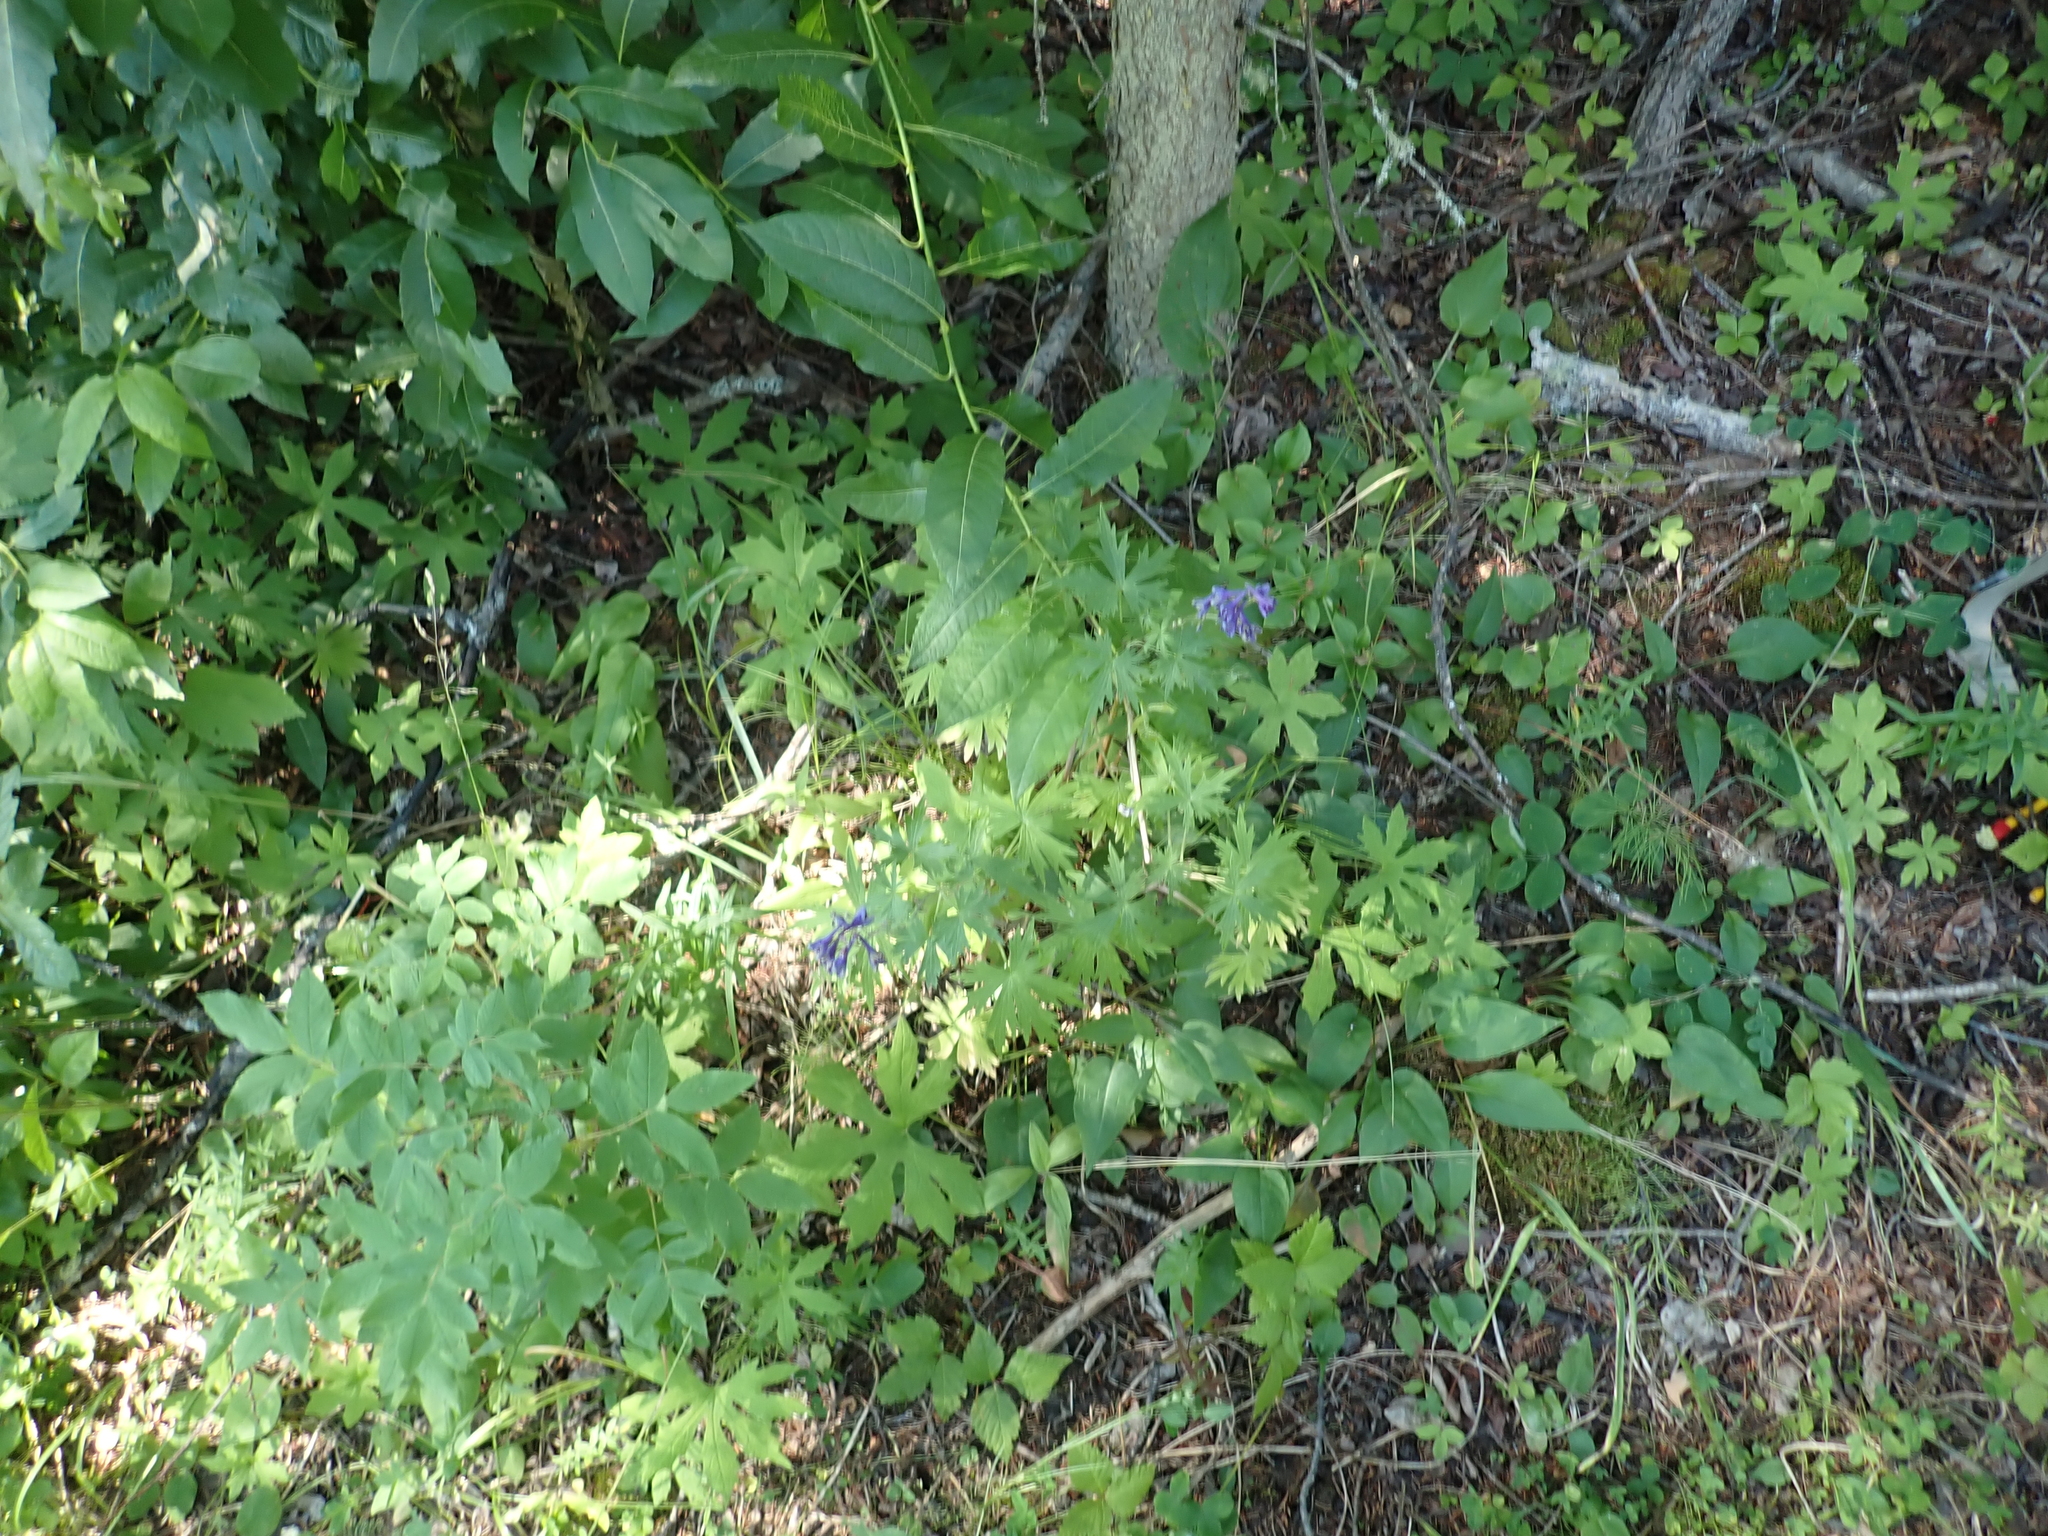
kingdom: Plantae
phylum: Tracheophyta
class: Magnoliopsida
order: Ranunculales
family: Ranunculaceae
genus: Delphinium
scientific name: Delphinium glaucum
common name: Brown's larkspur
